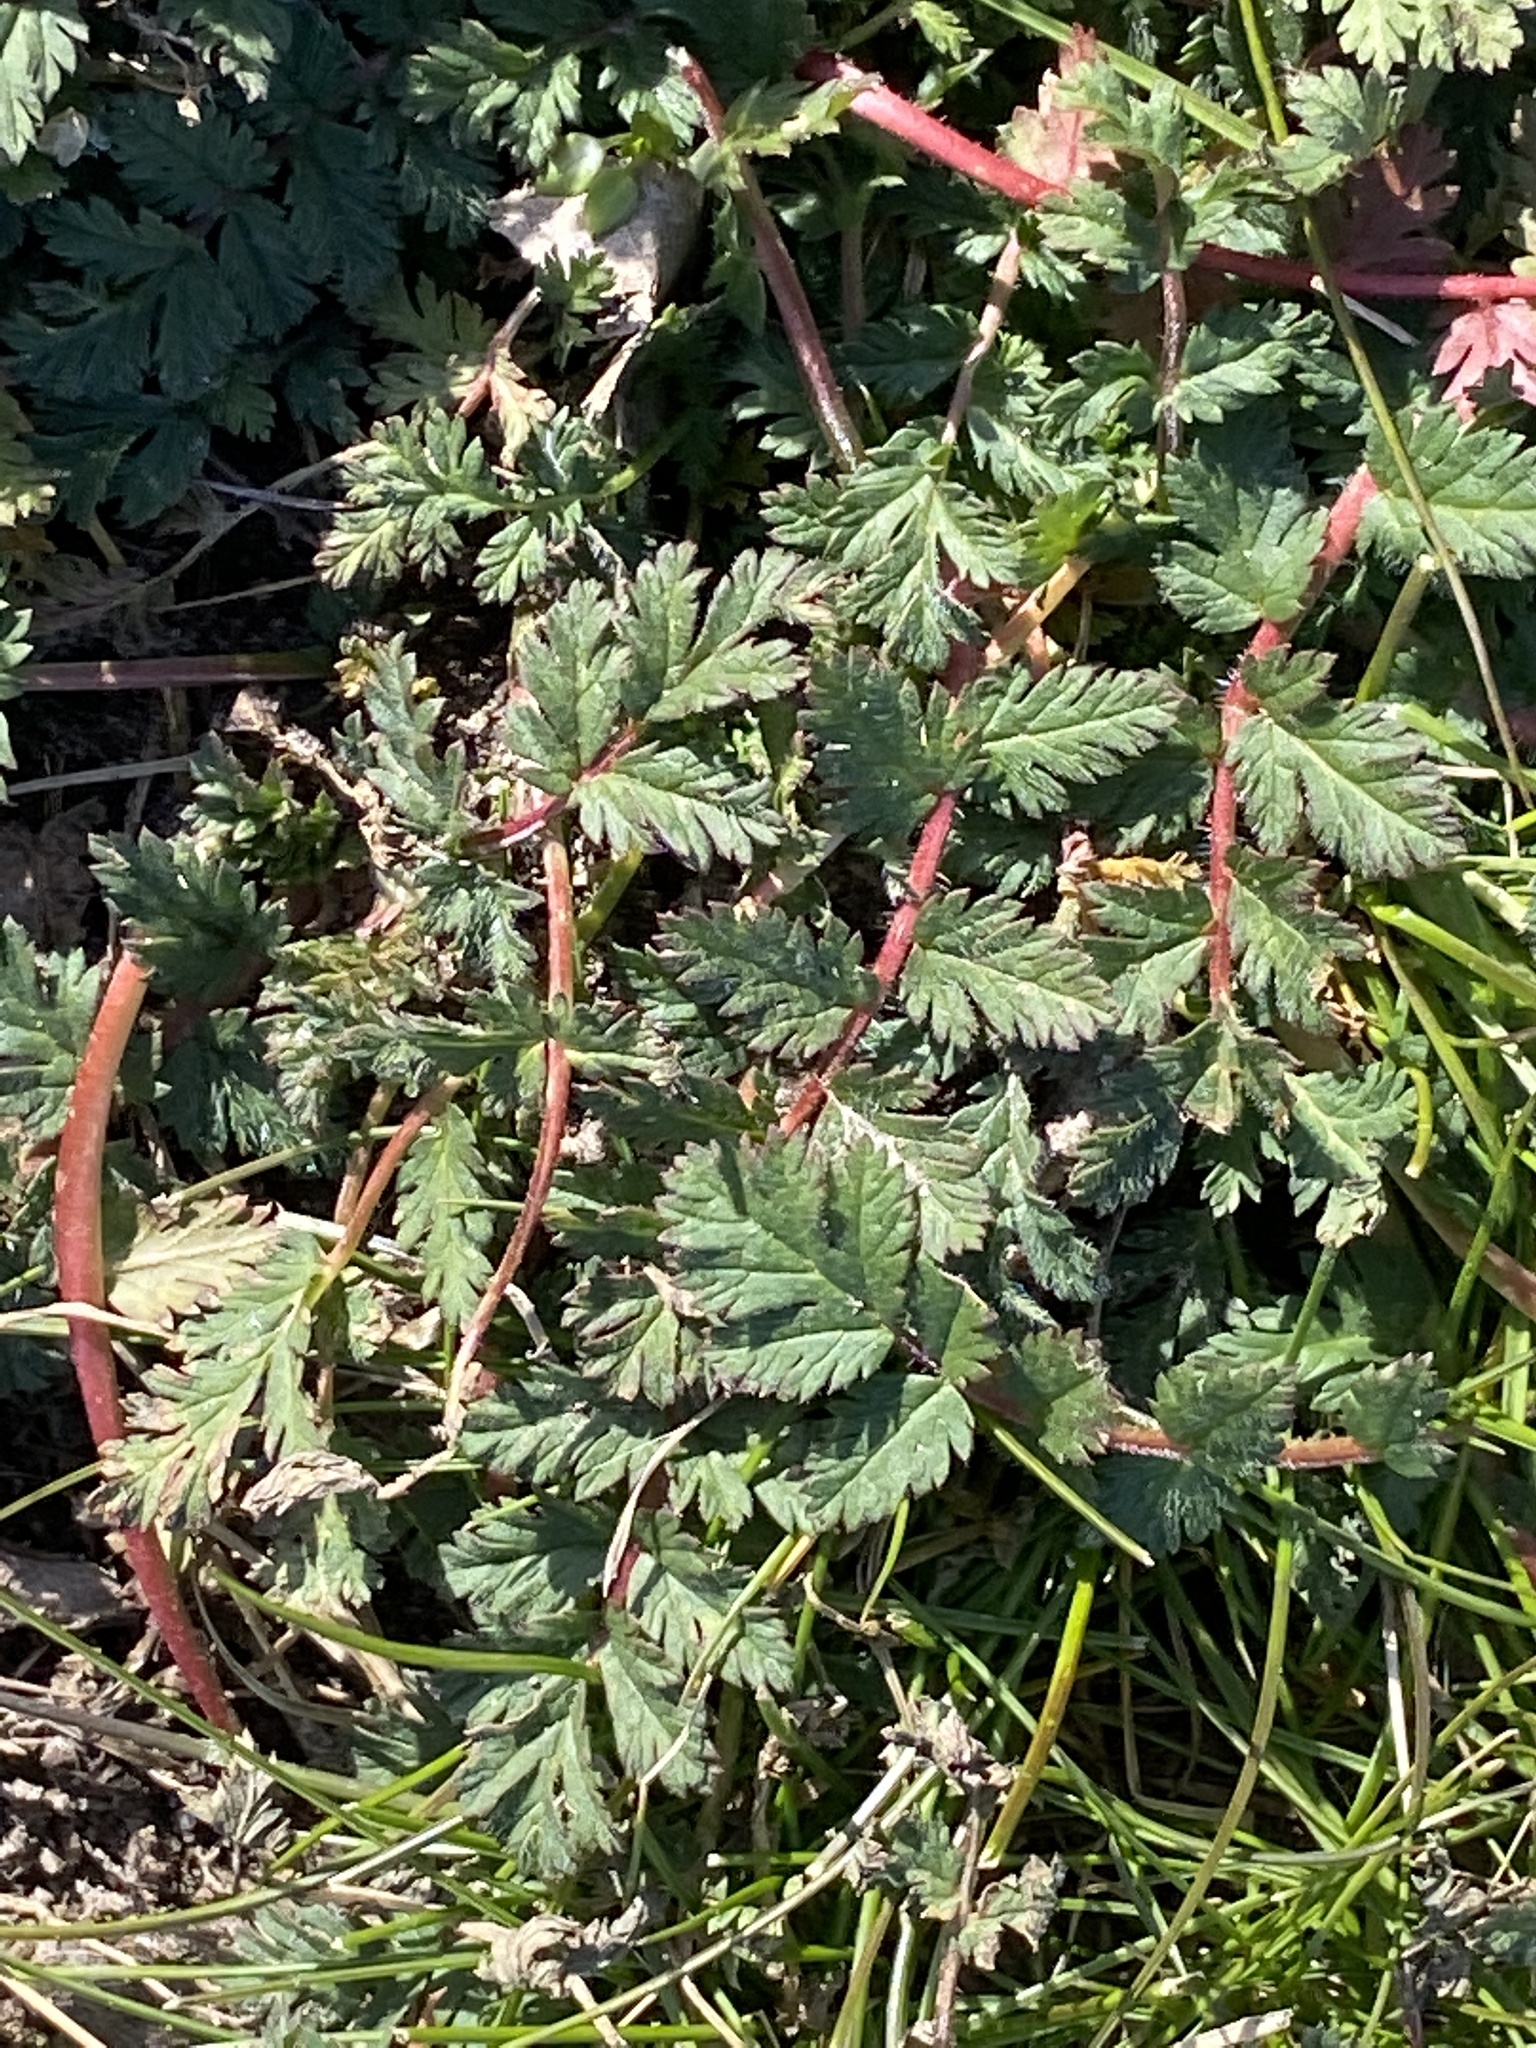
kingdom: Plantae
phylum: Tracheophyta
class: Magnoliopsida
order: Geraniales
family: Geraniaceae
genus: Erodium
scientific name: Erodium cicutarium
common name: Common stork's-bill
